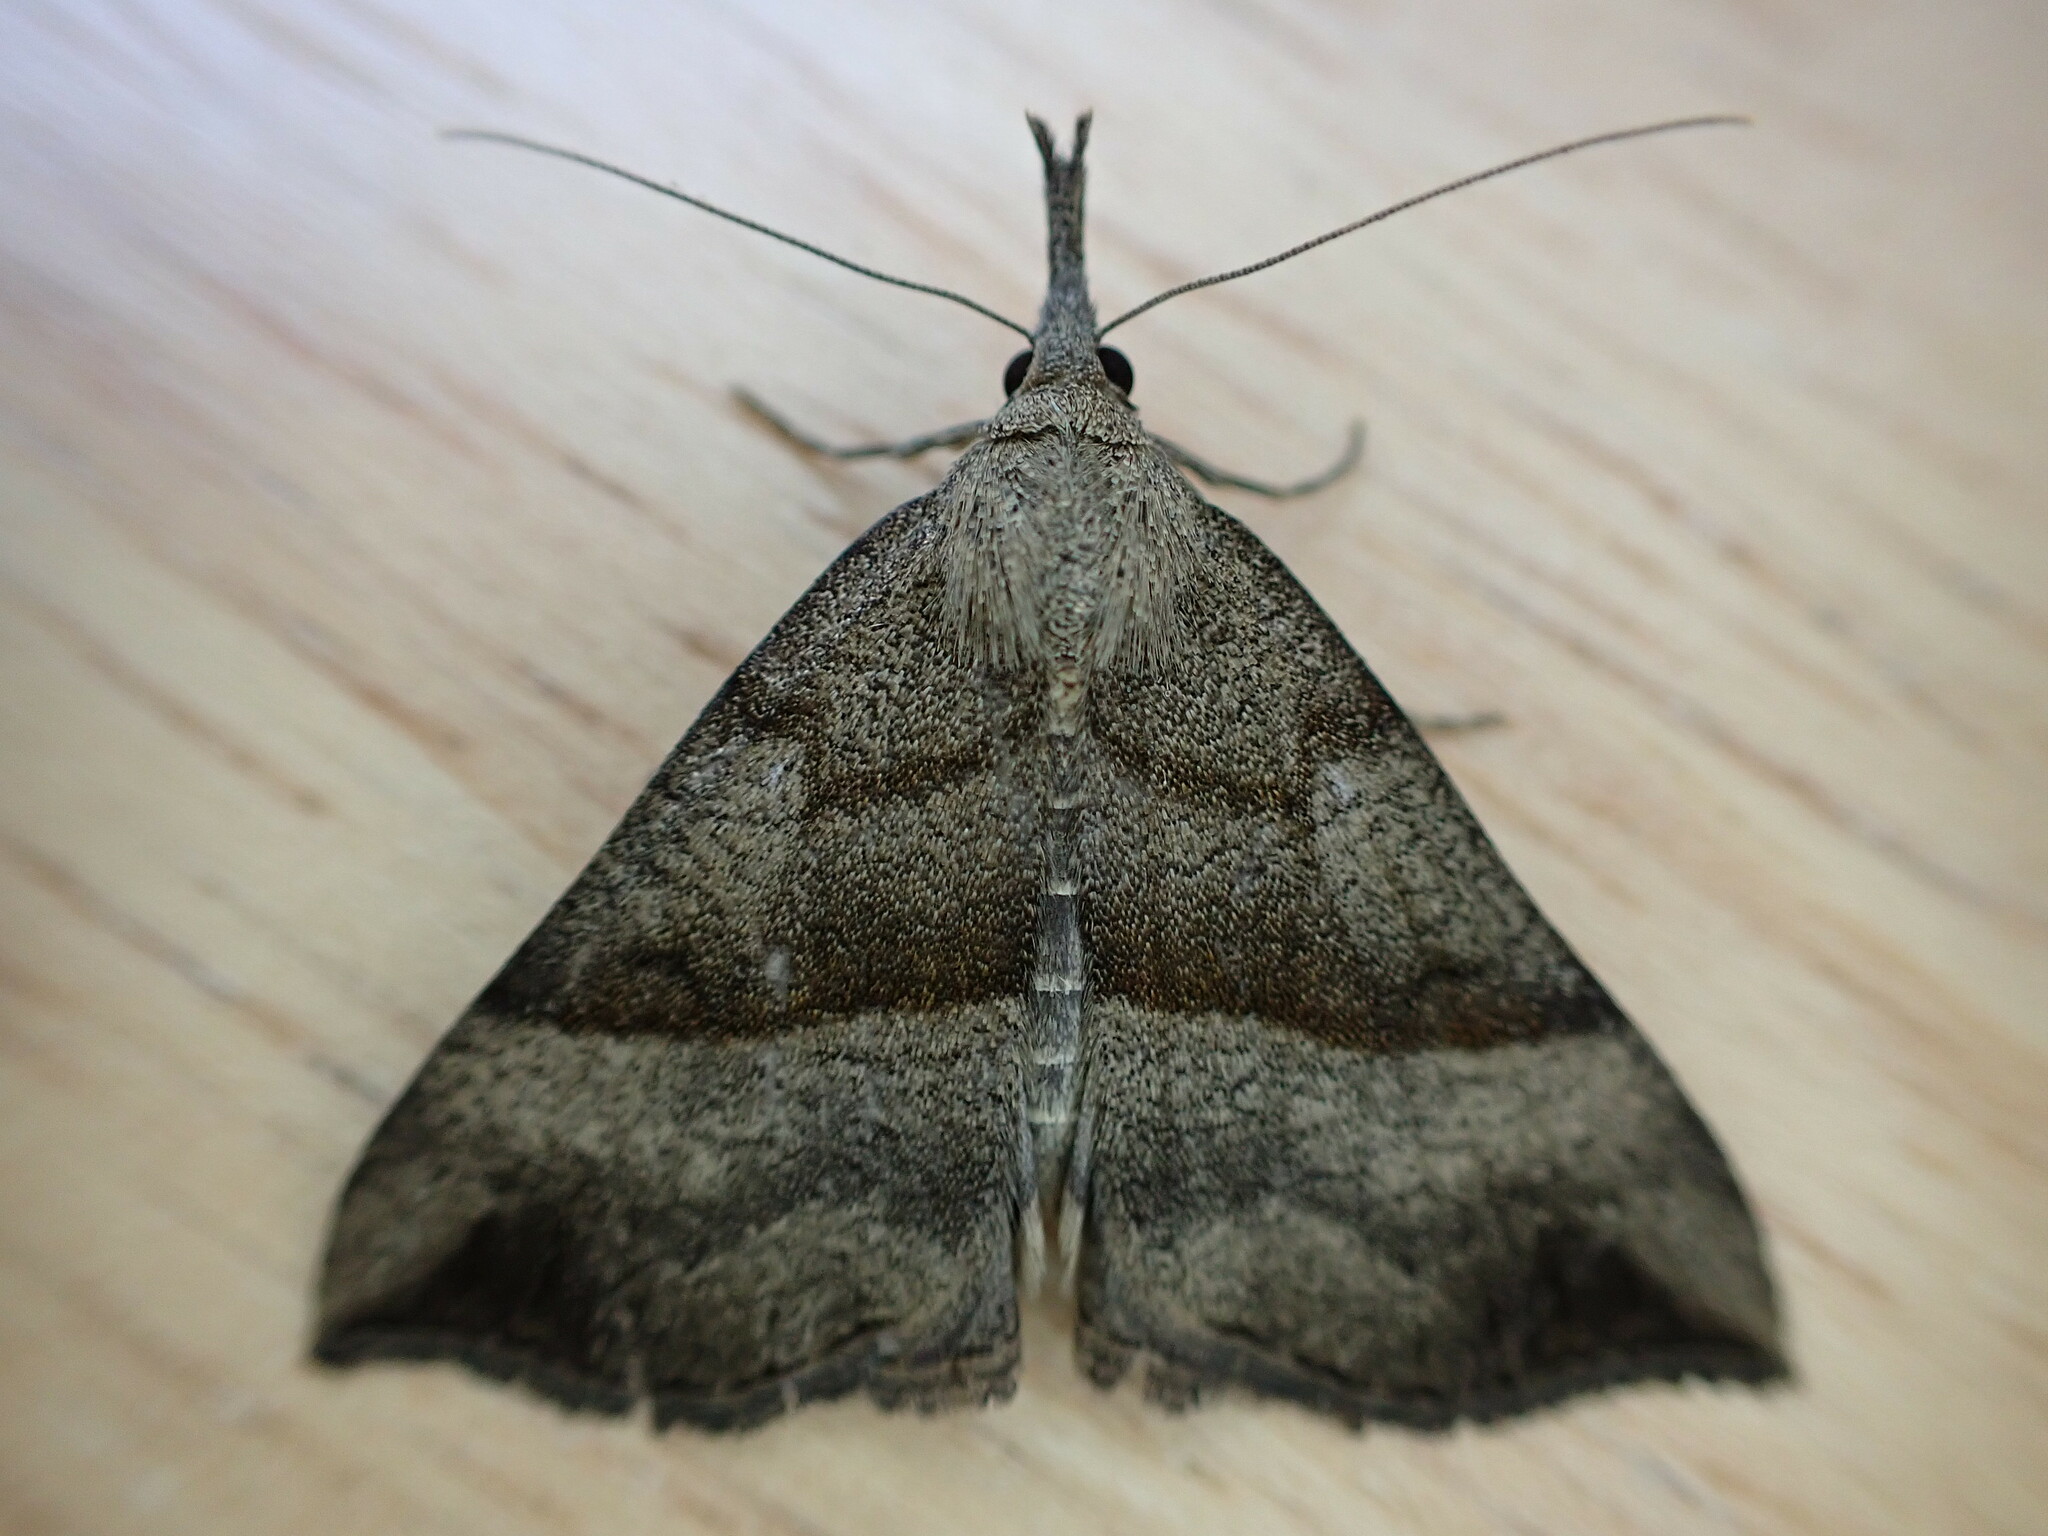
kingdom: Animalia
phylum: Arthropoda
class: Insecta
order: Lepidoptera
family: Erebidae
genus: Hypena
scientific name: Hypena proboscidalis
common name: Snout
